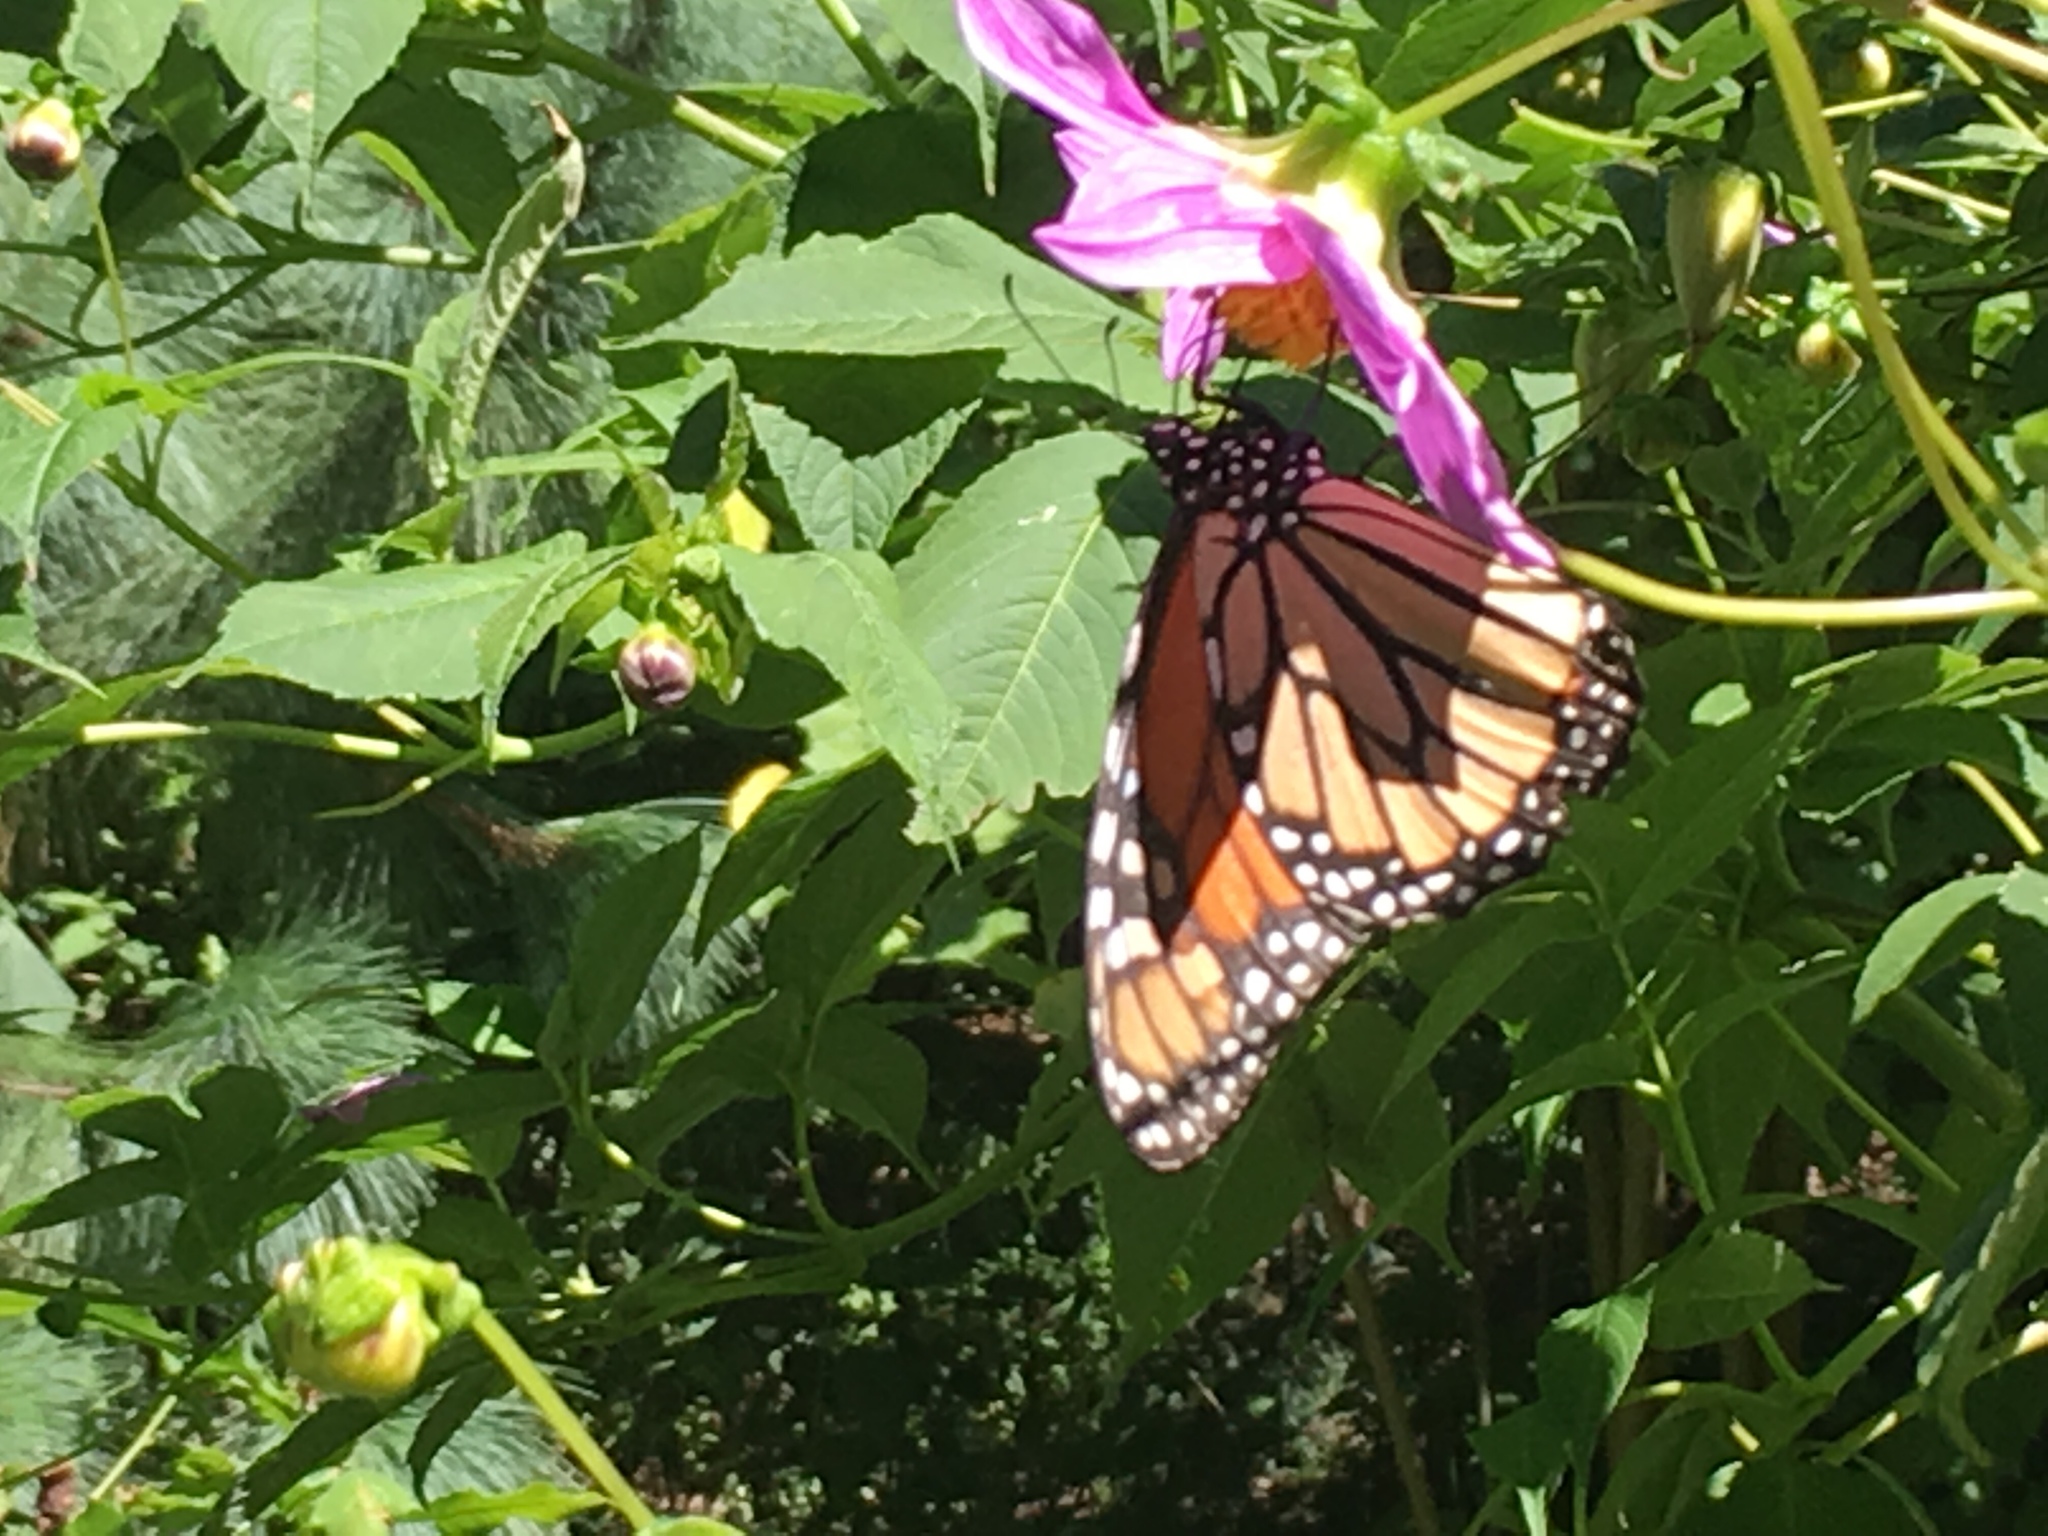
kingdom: Animalia
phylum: Arthropoda
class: Insecta
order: Lepidoptera
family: Nymphalidae
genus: Danaus
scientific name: Danaus plexippus
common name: Monarch
